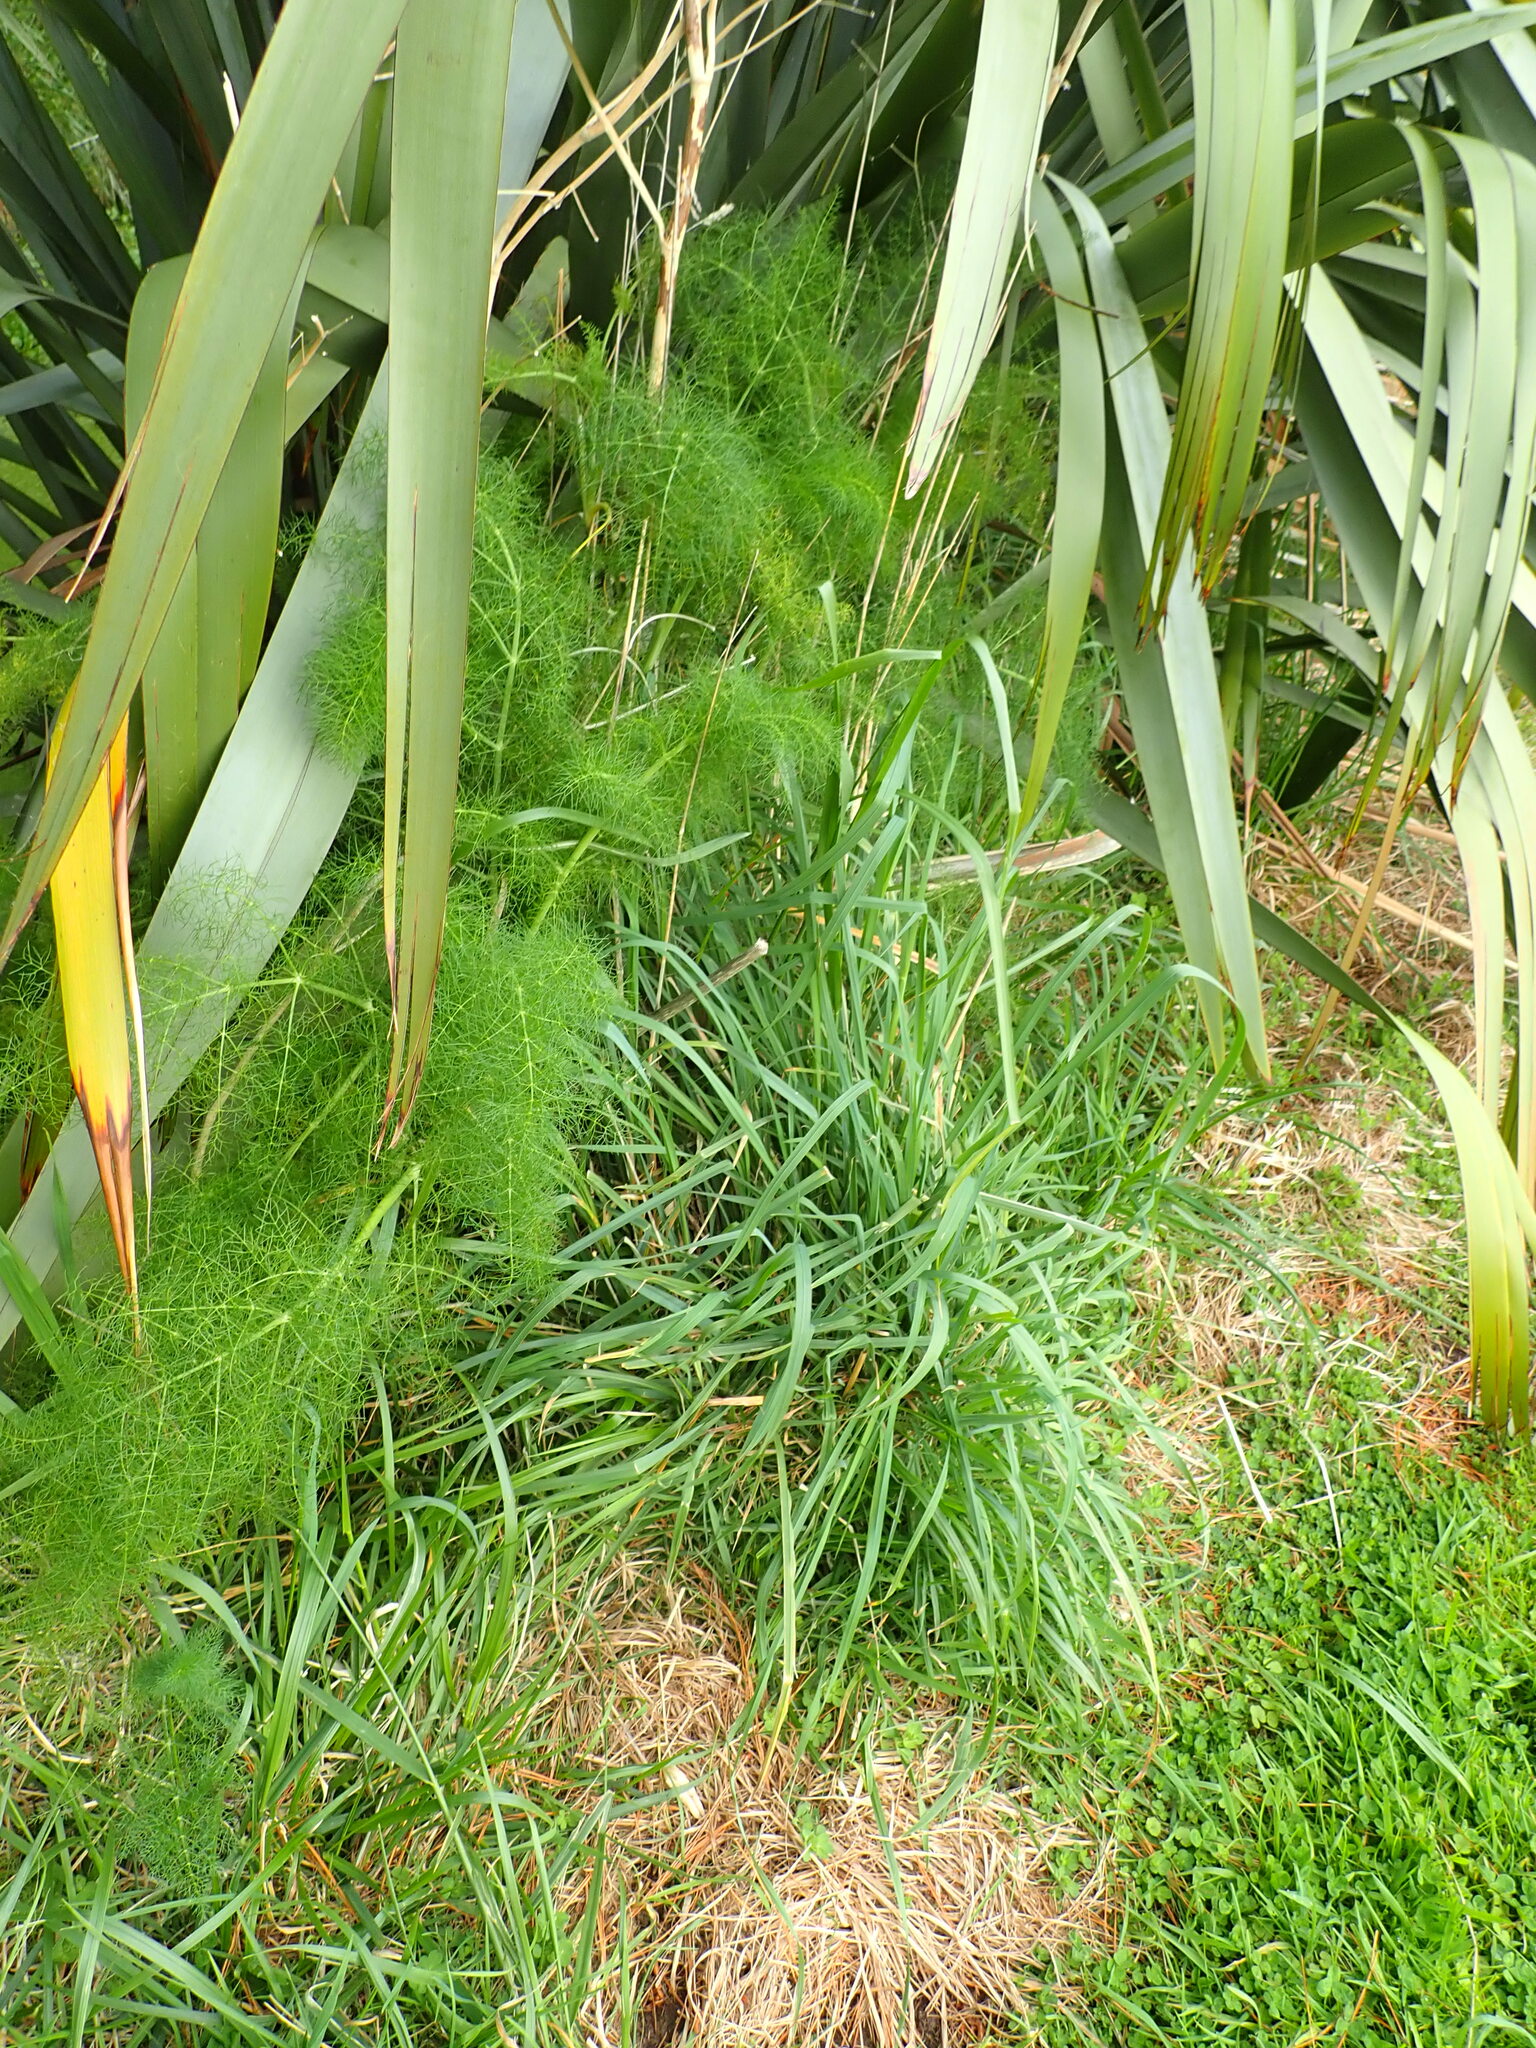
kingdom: Plantae
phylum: Tracheophyta
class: Magnoliopsida
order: Apiales
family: Apiaceae
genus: Foeniculum
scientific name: Foeniculum vulgare
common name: Fennel
